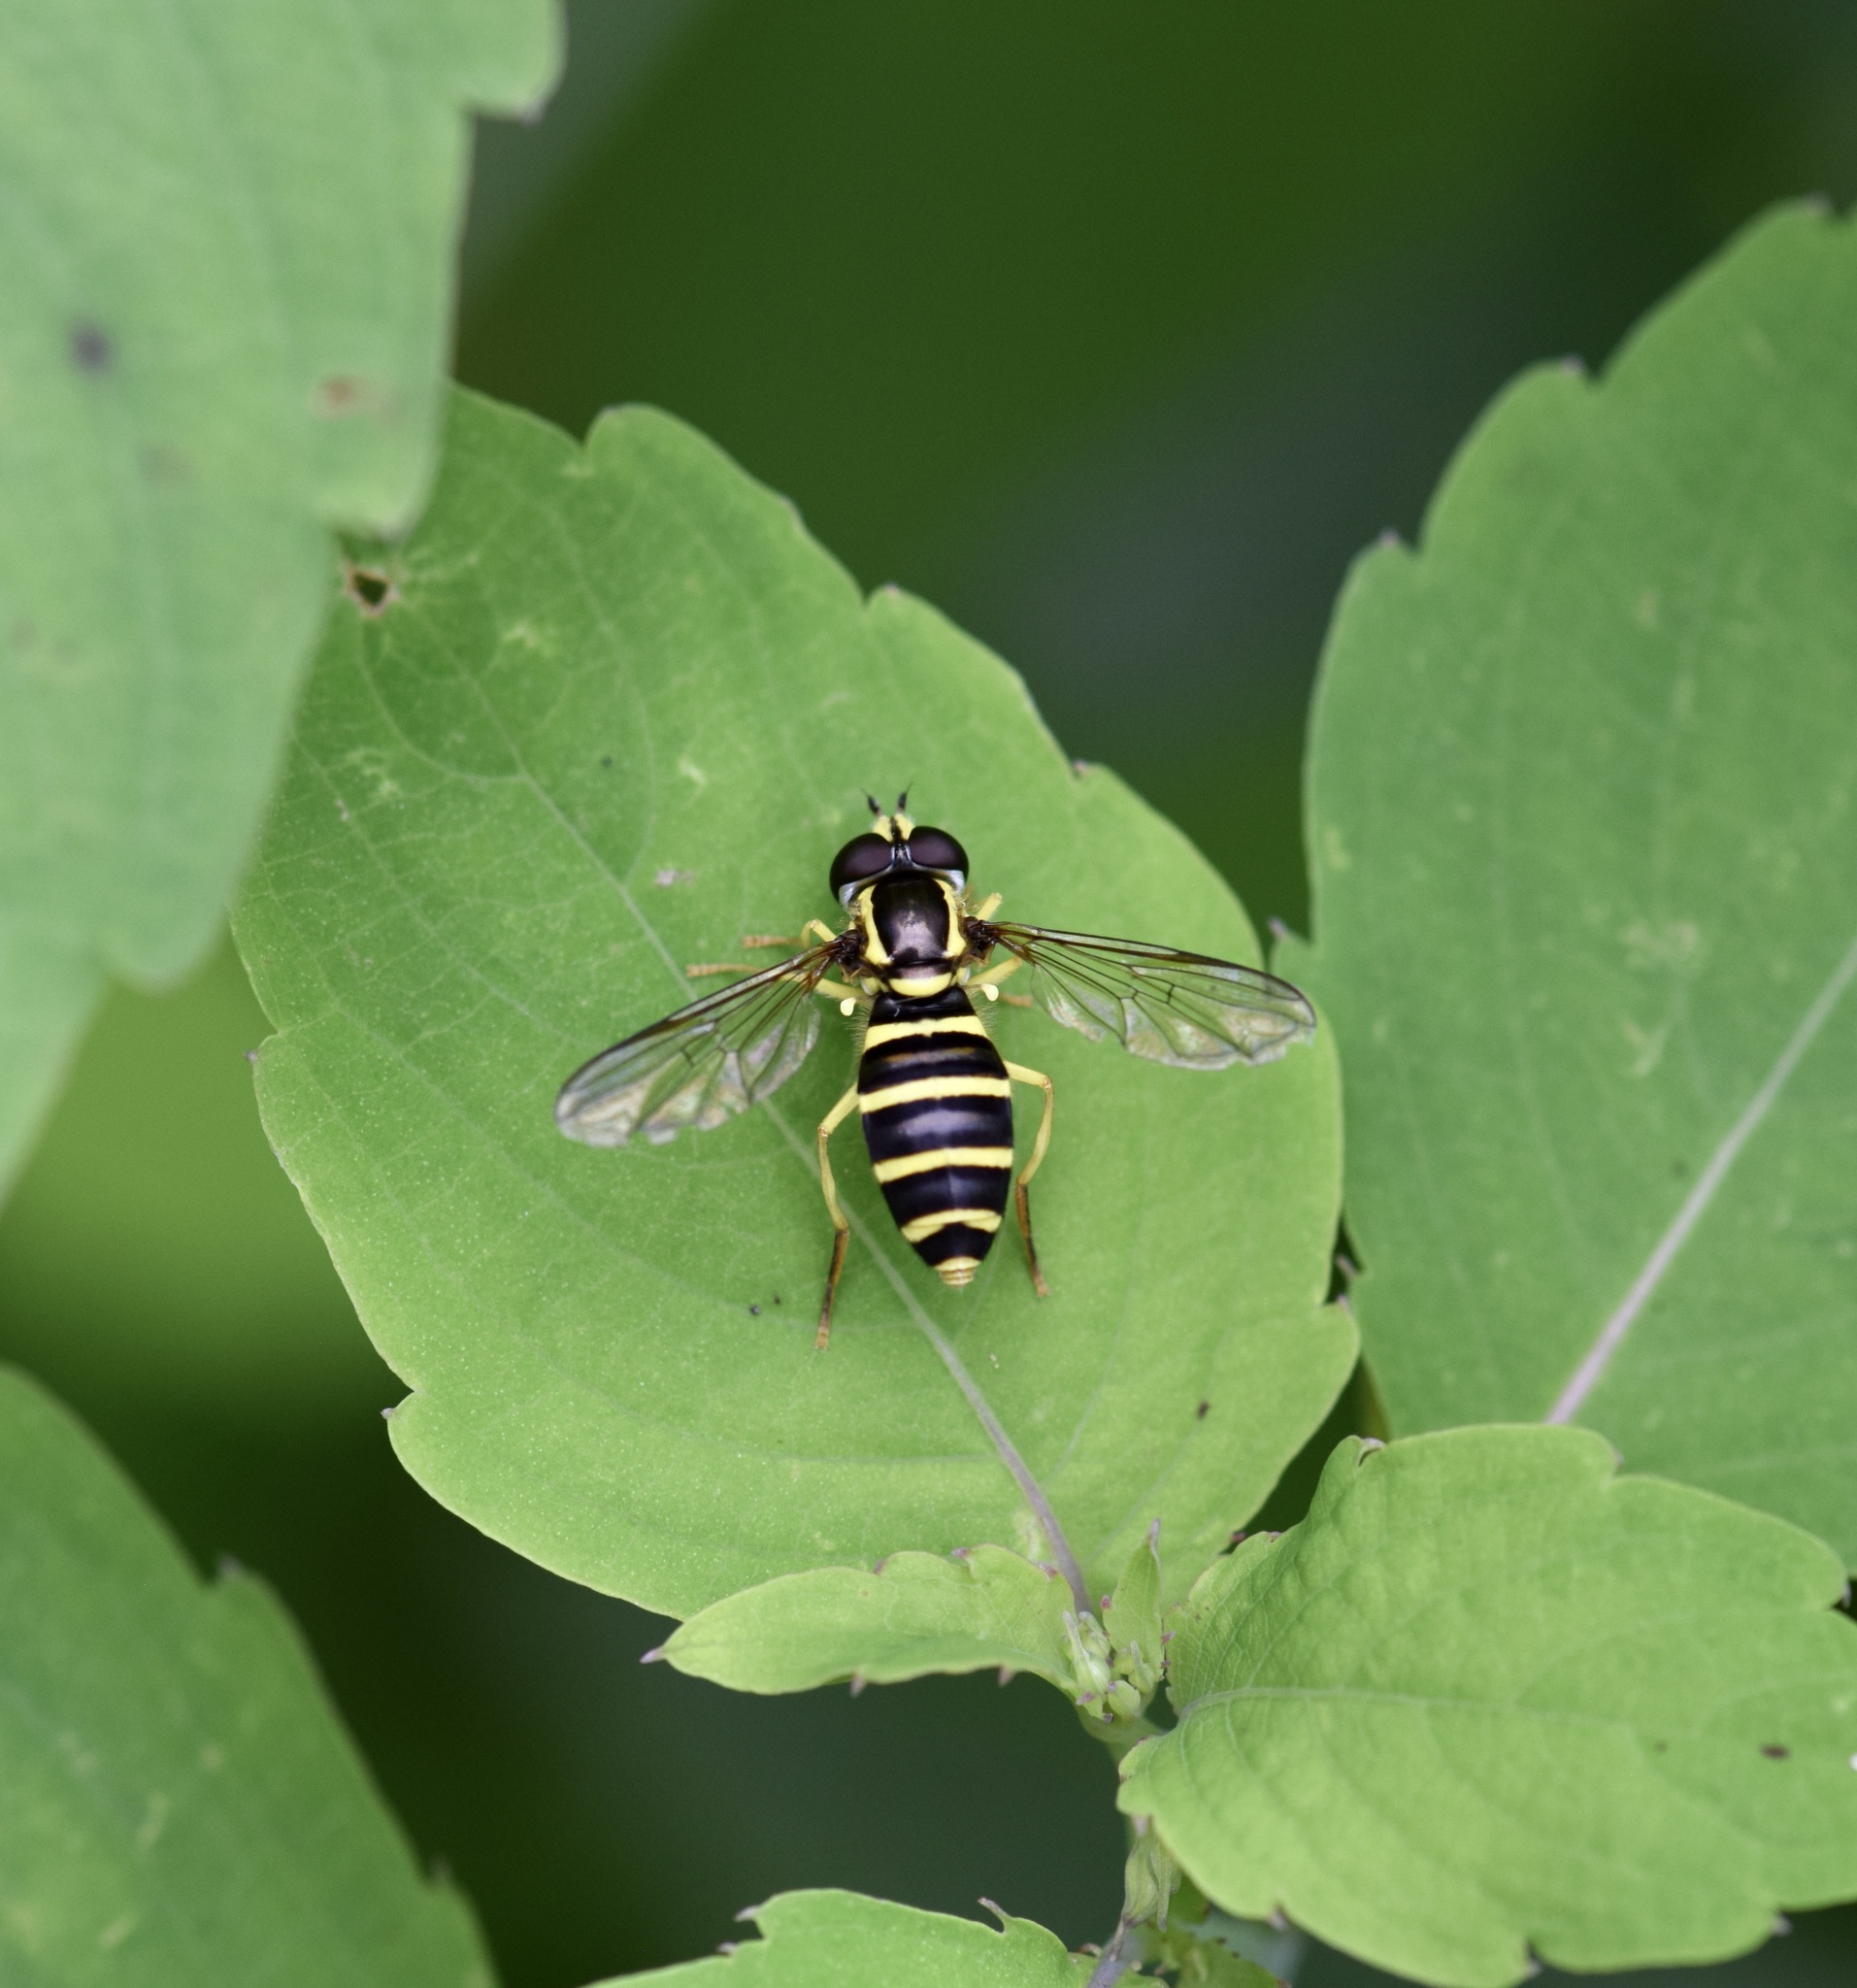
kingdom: Animalia
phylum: Arthropoda
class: Insecta
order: Diptera
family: Syrphidae
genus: Philhelius
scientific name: Philhelius flavipes
